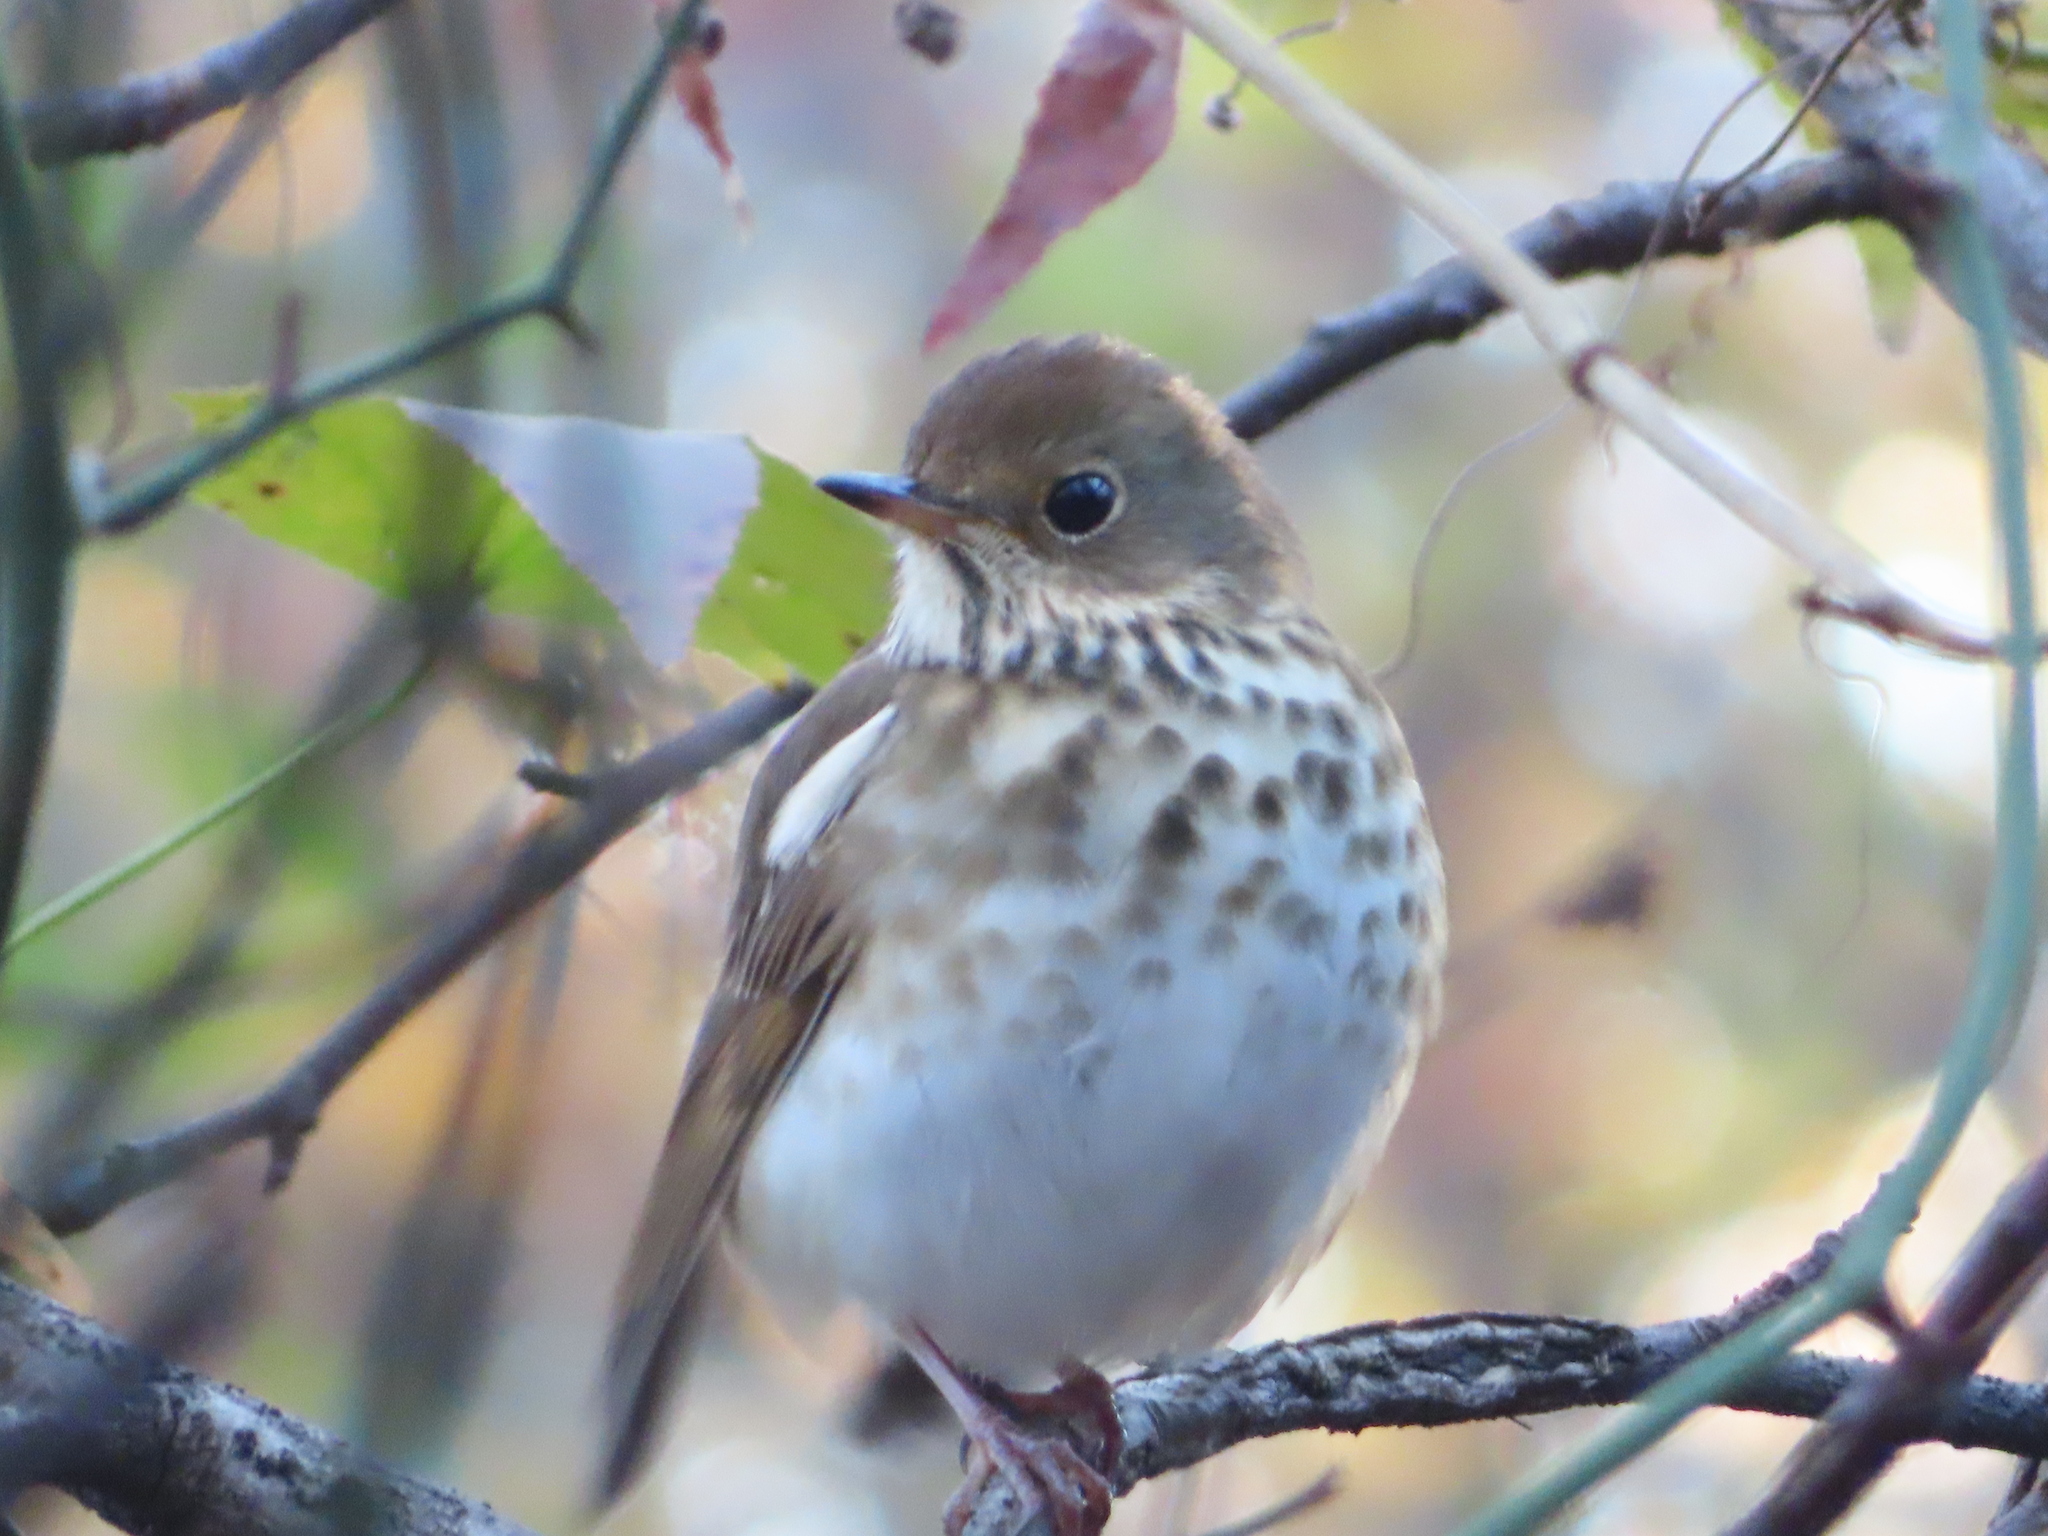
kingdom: Animalia
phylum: Chordata
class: Aves
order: Passeriformes
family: Turdidae
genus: Catharus
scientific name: Catharus guttatus
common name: Hermit thrush
